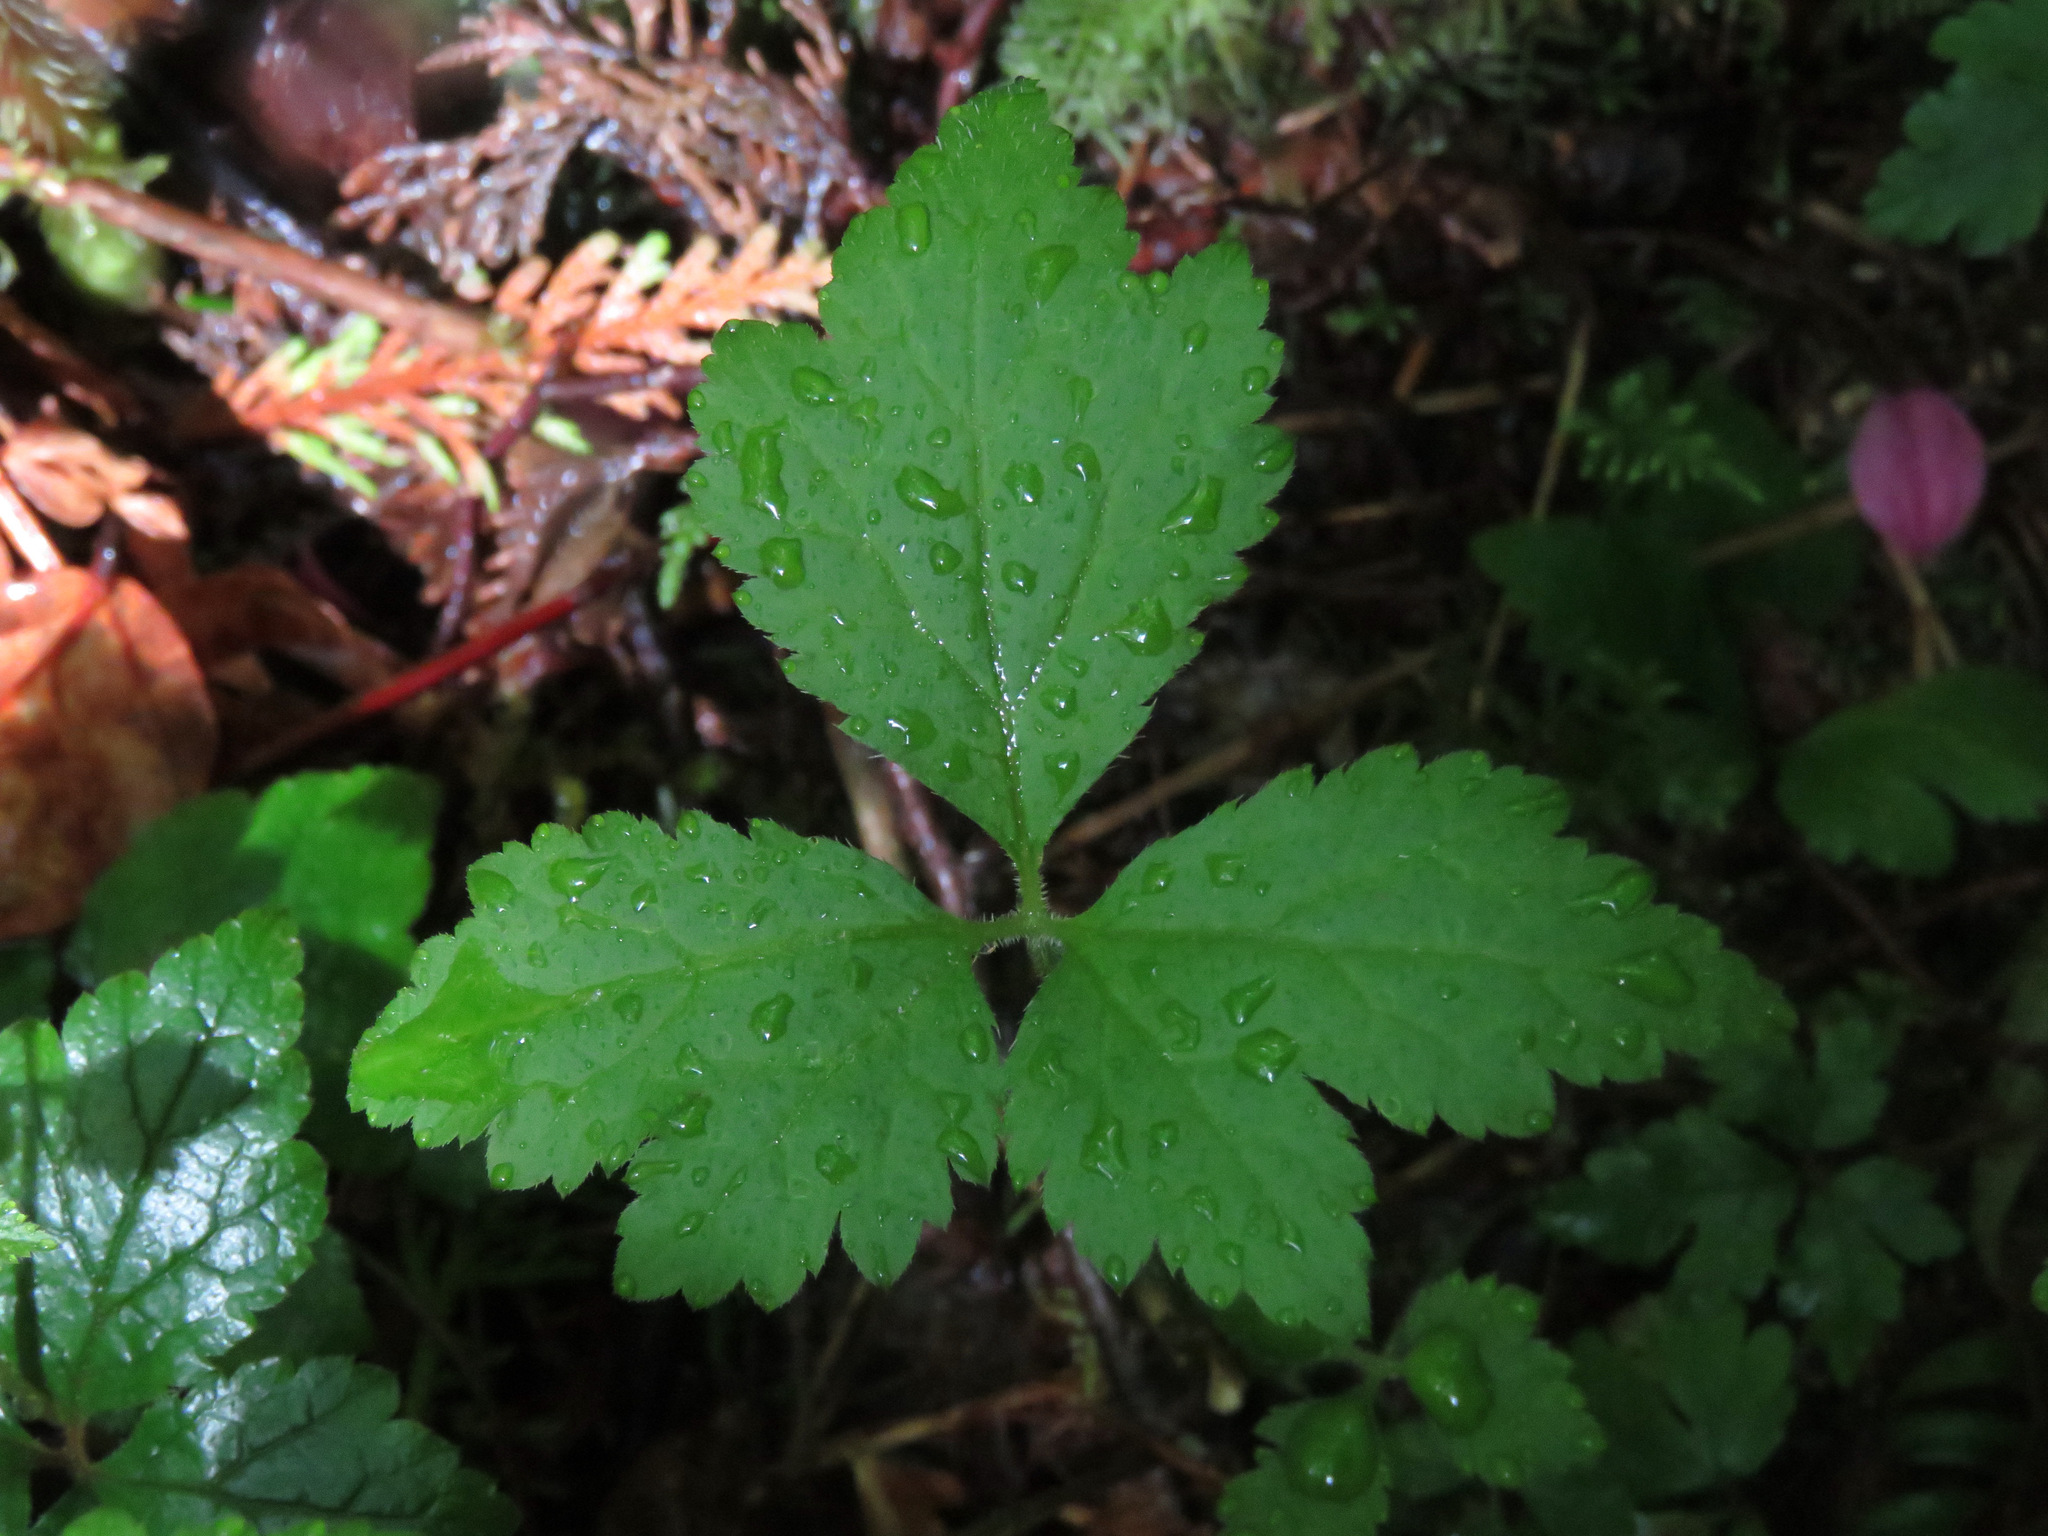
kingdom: Plantae
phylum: Tracheophyta
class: Magnoliopsida
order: Saxifragales
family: Saxifragaceae
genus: Tiarella
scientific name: Tiarella trifoliata
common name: Sugar-scoop
